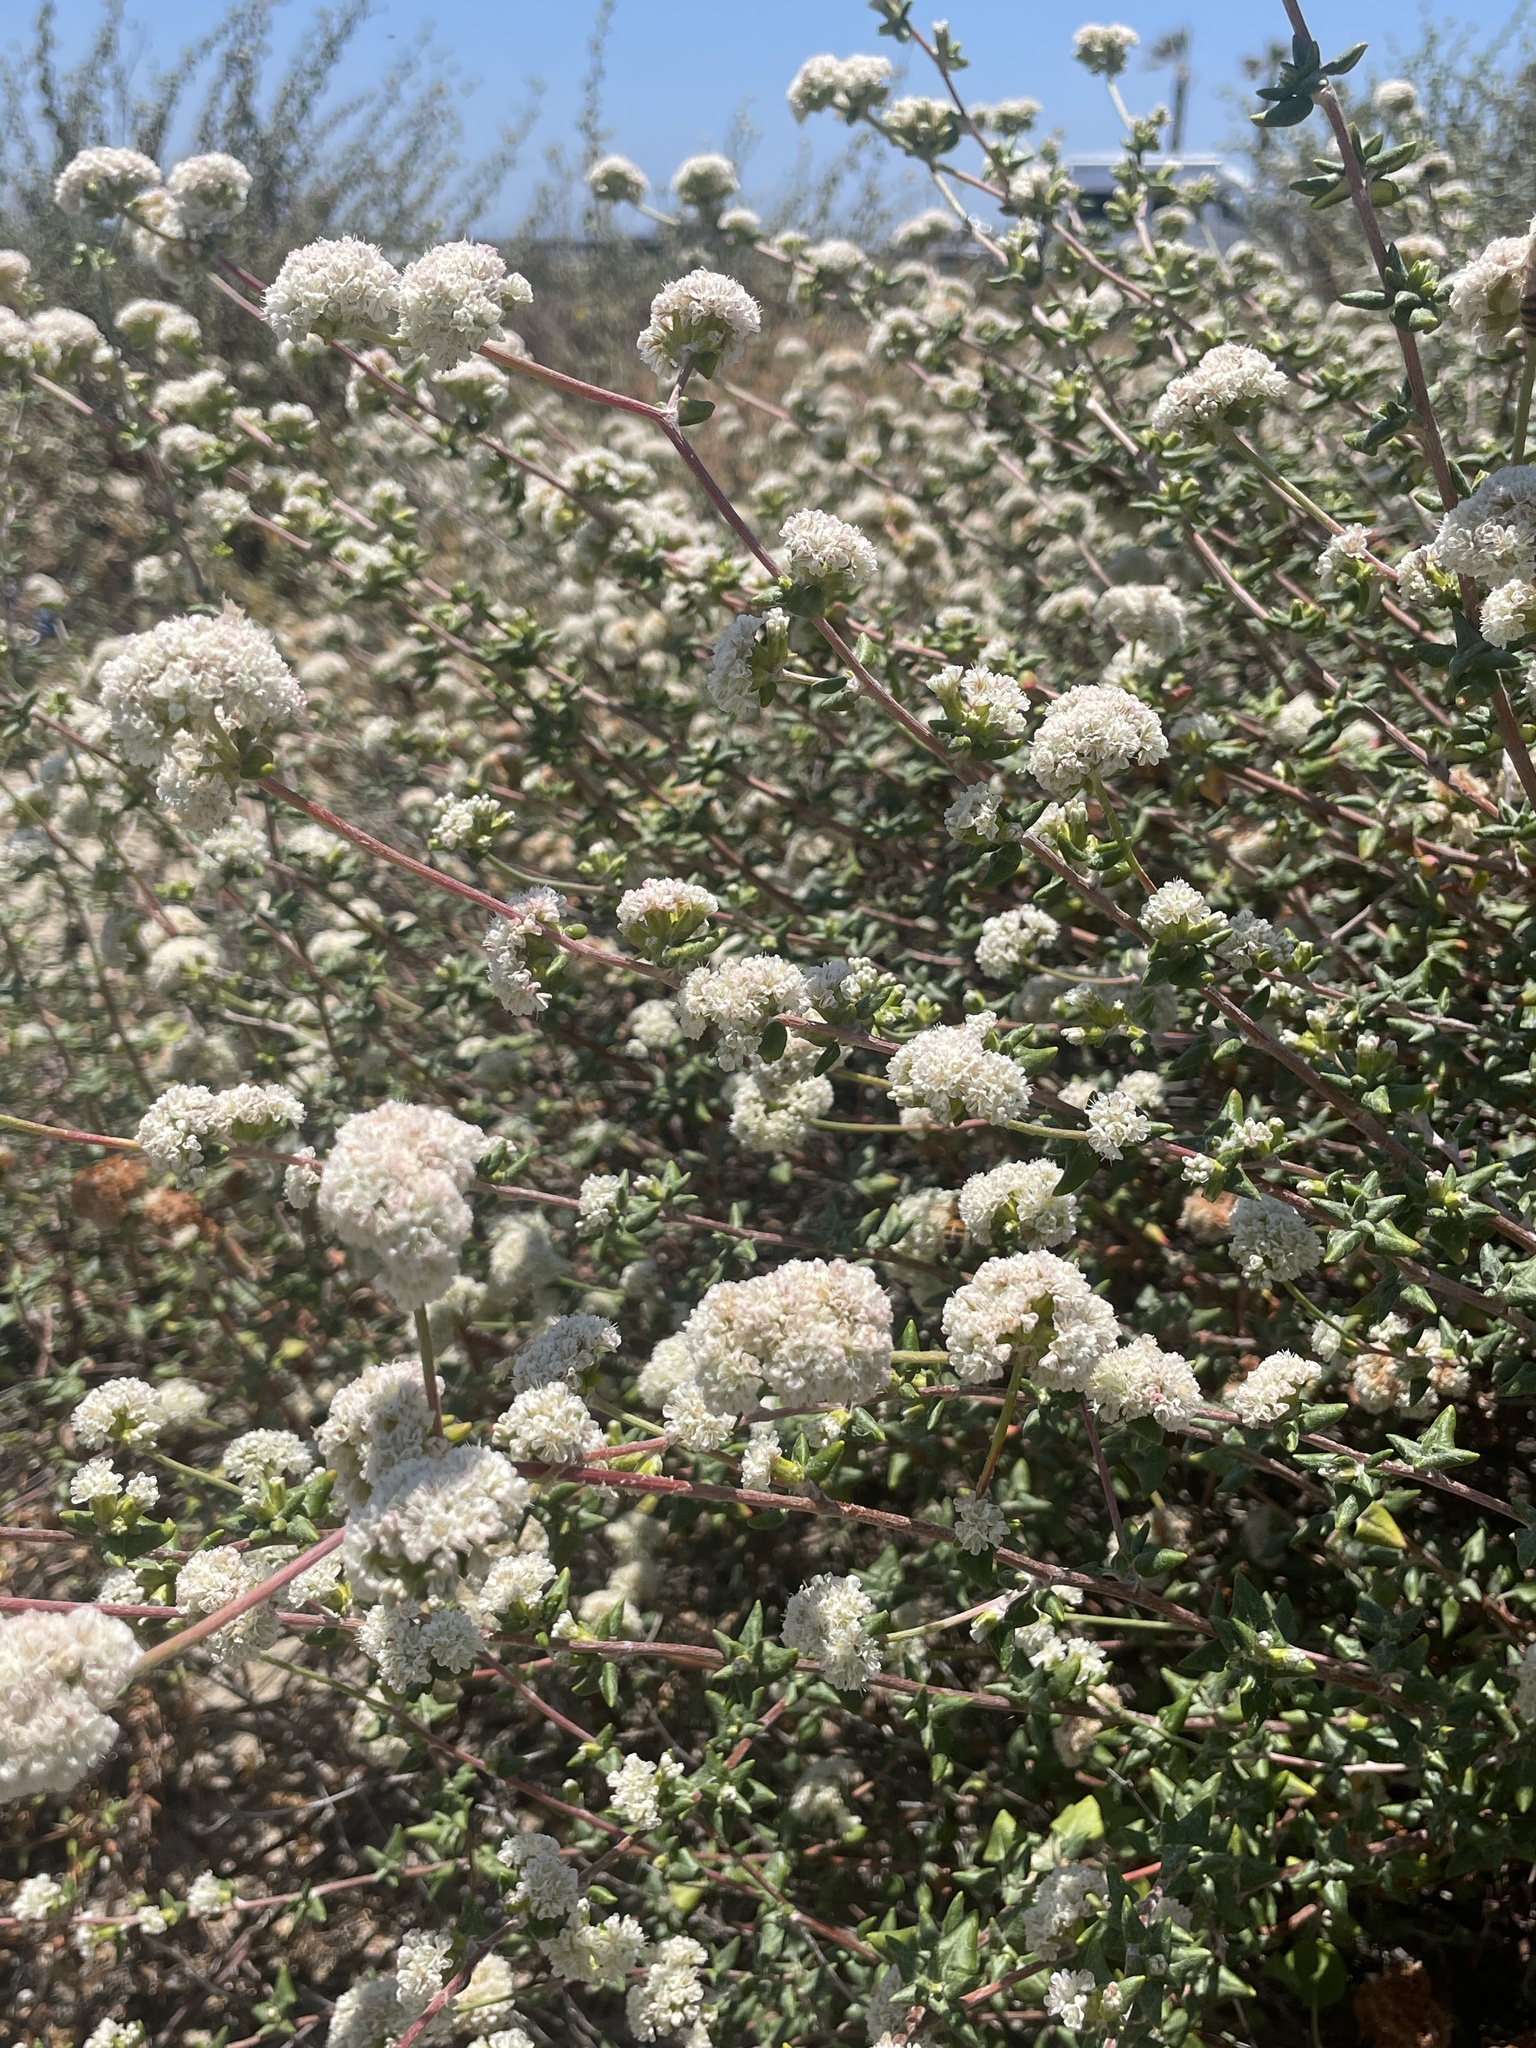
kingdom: Plantae
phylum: Tracheophyta
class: Magnoliopsida
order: Caryophyllales
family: Polygonaceae
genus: Eriogonum
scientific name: Eriogonum parvifolium
